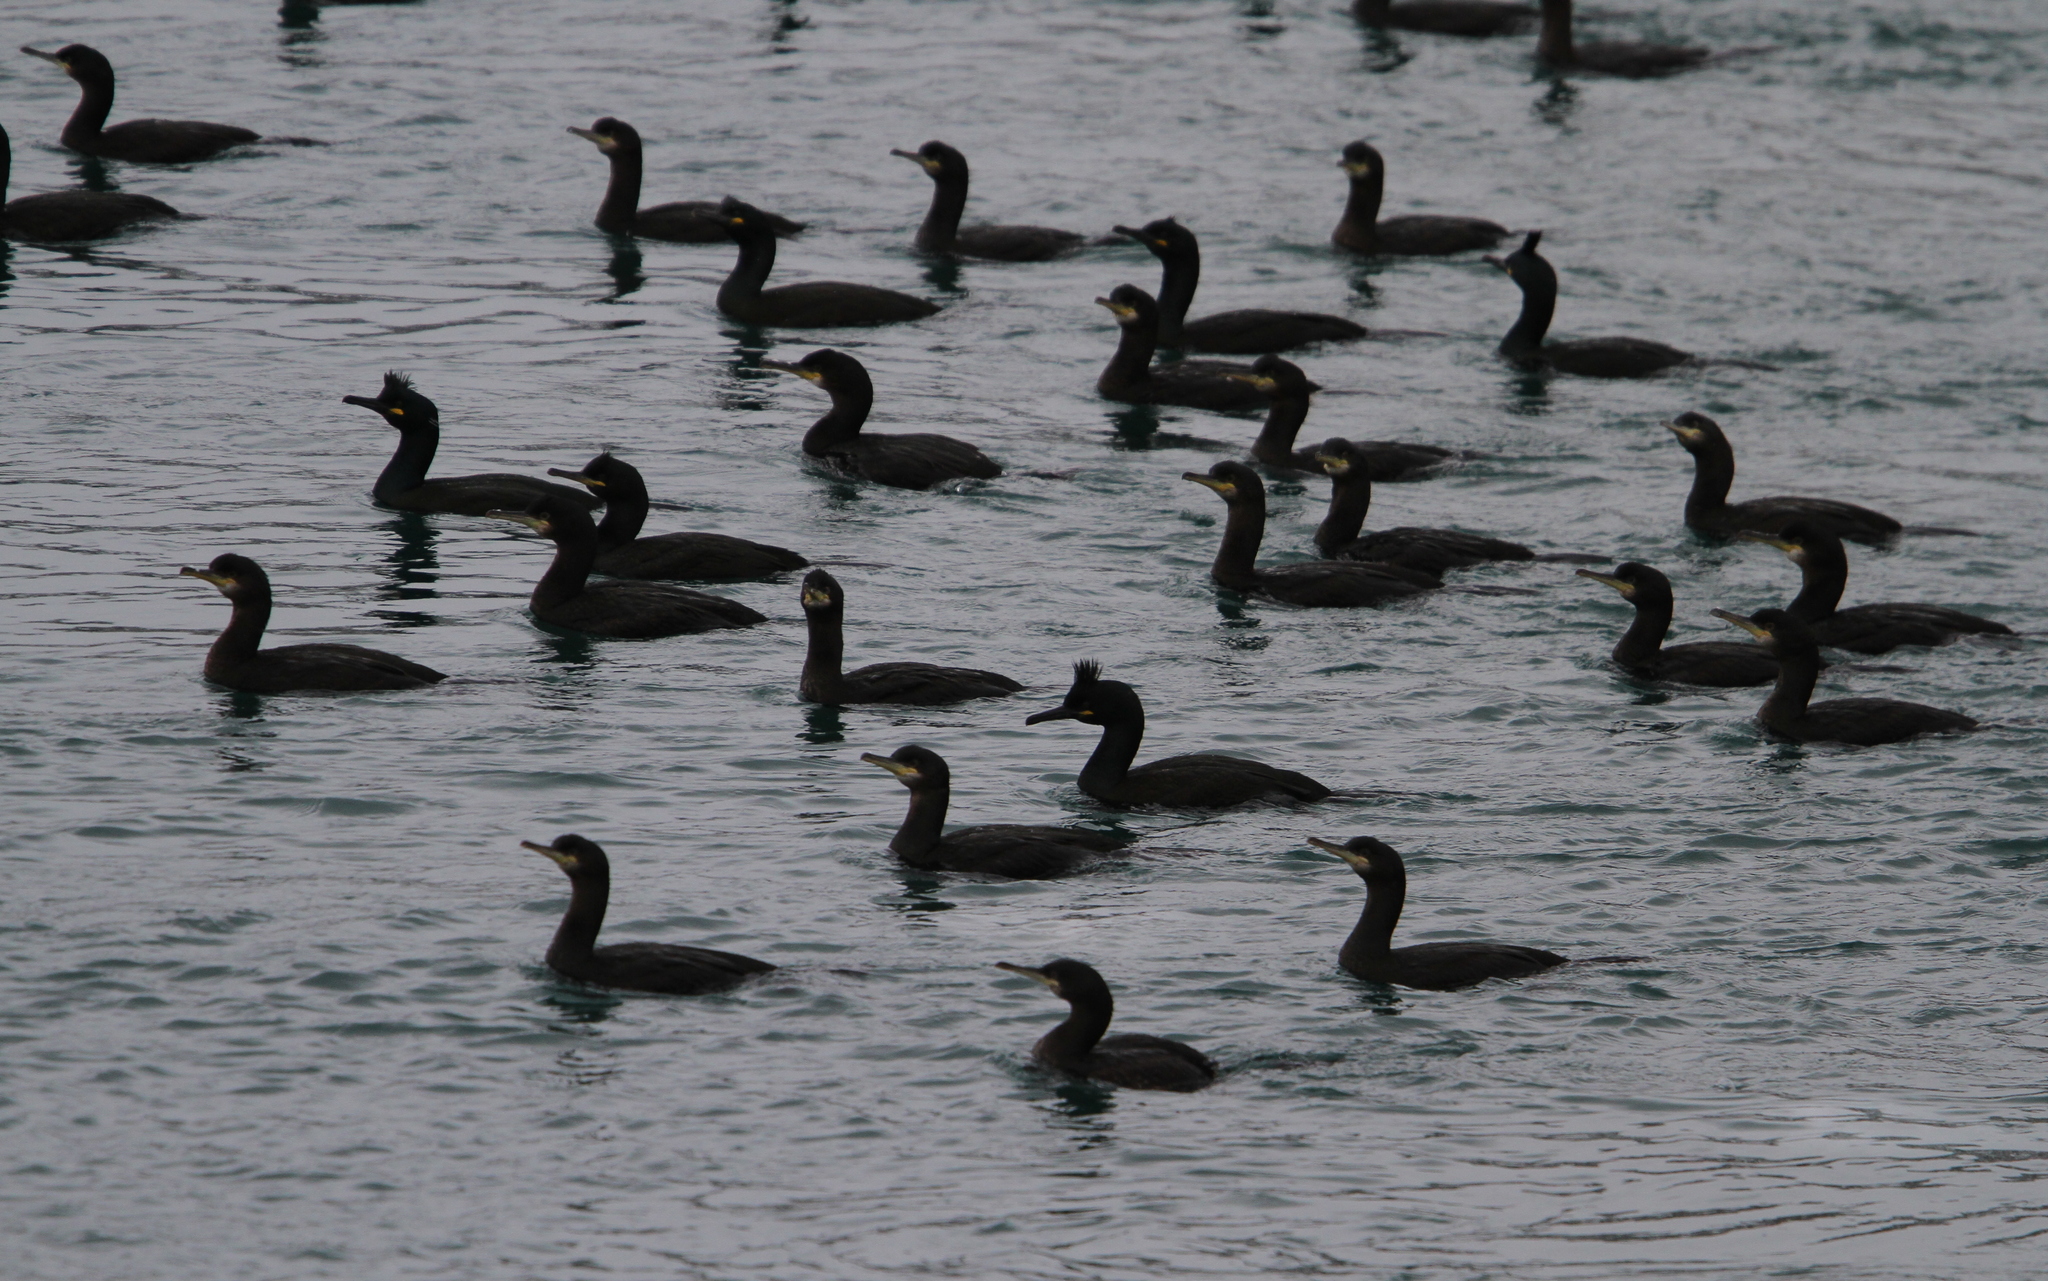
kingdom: Animalia
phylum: Chordata
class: Aves
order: Suliformes
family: Phalacrocoracidae
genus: Phalacrocorax
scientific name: Phalacrocorax aristotelis
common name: European shag
